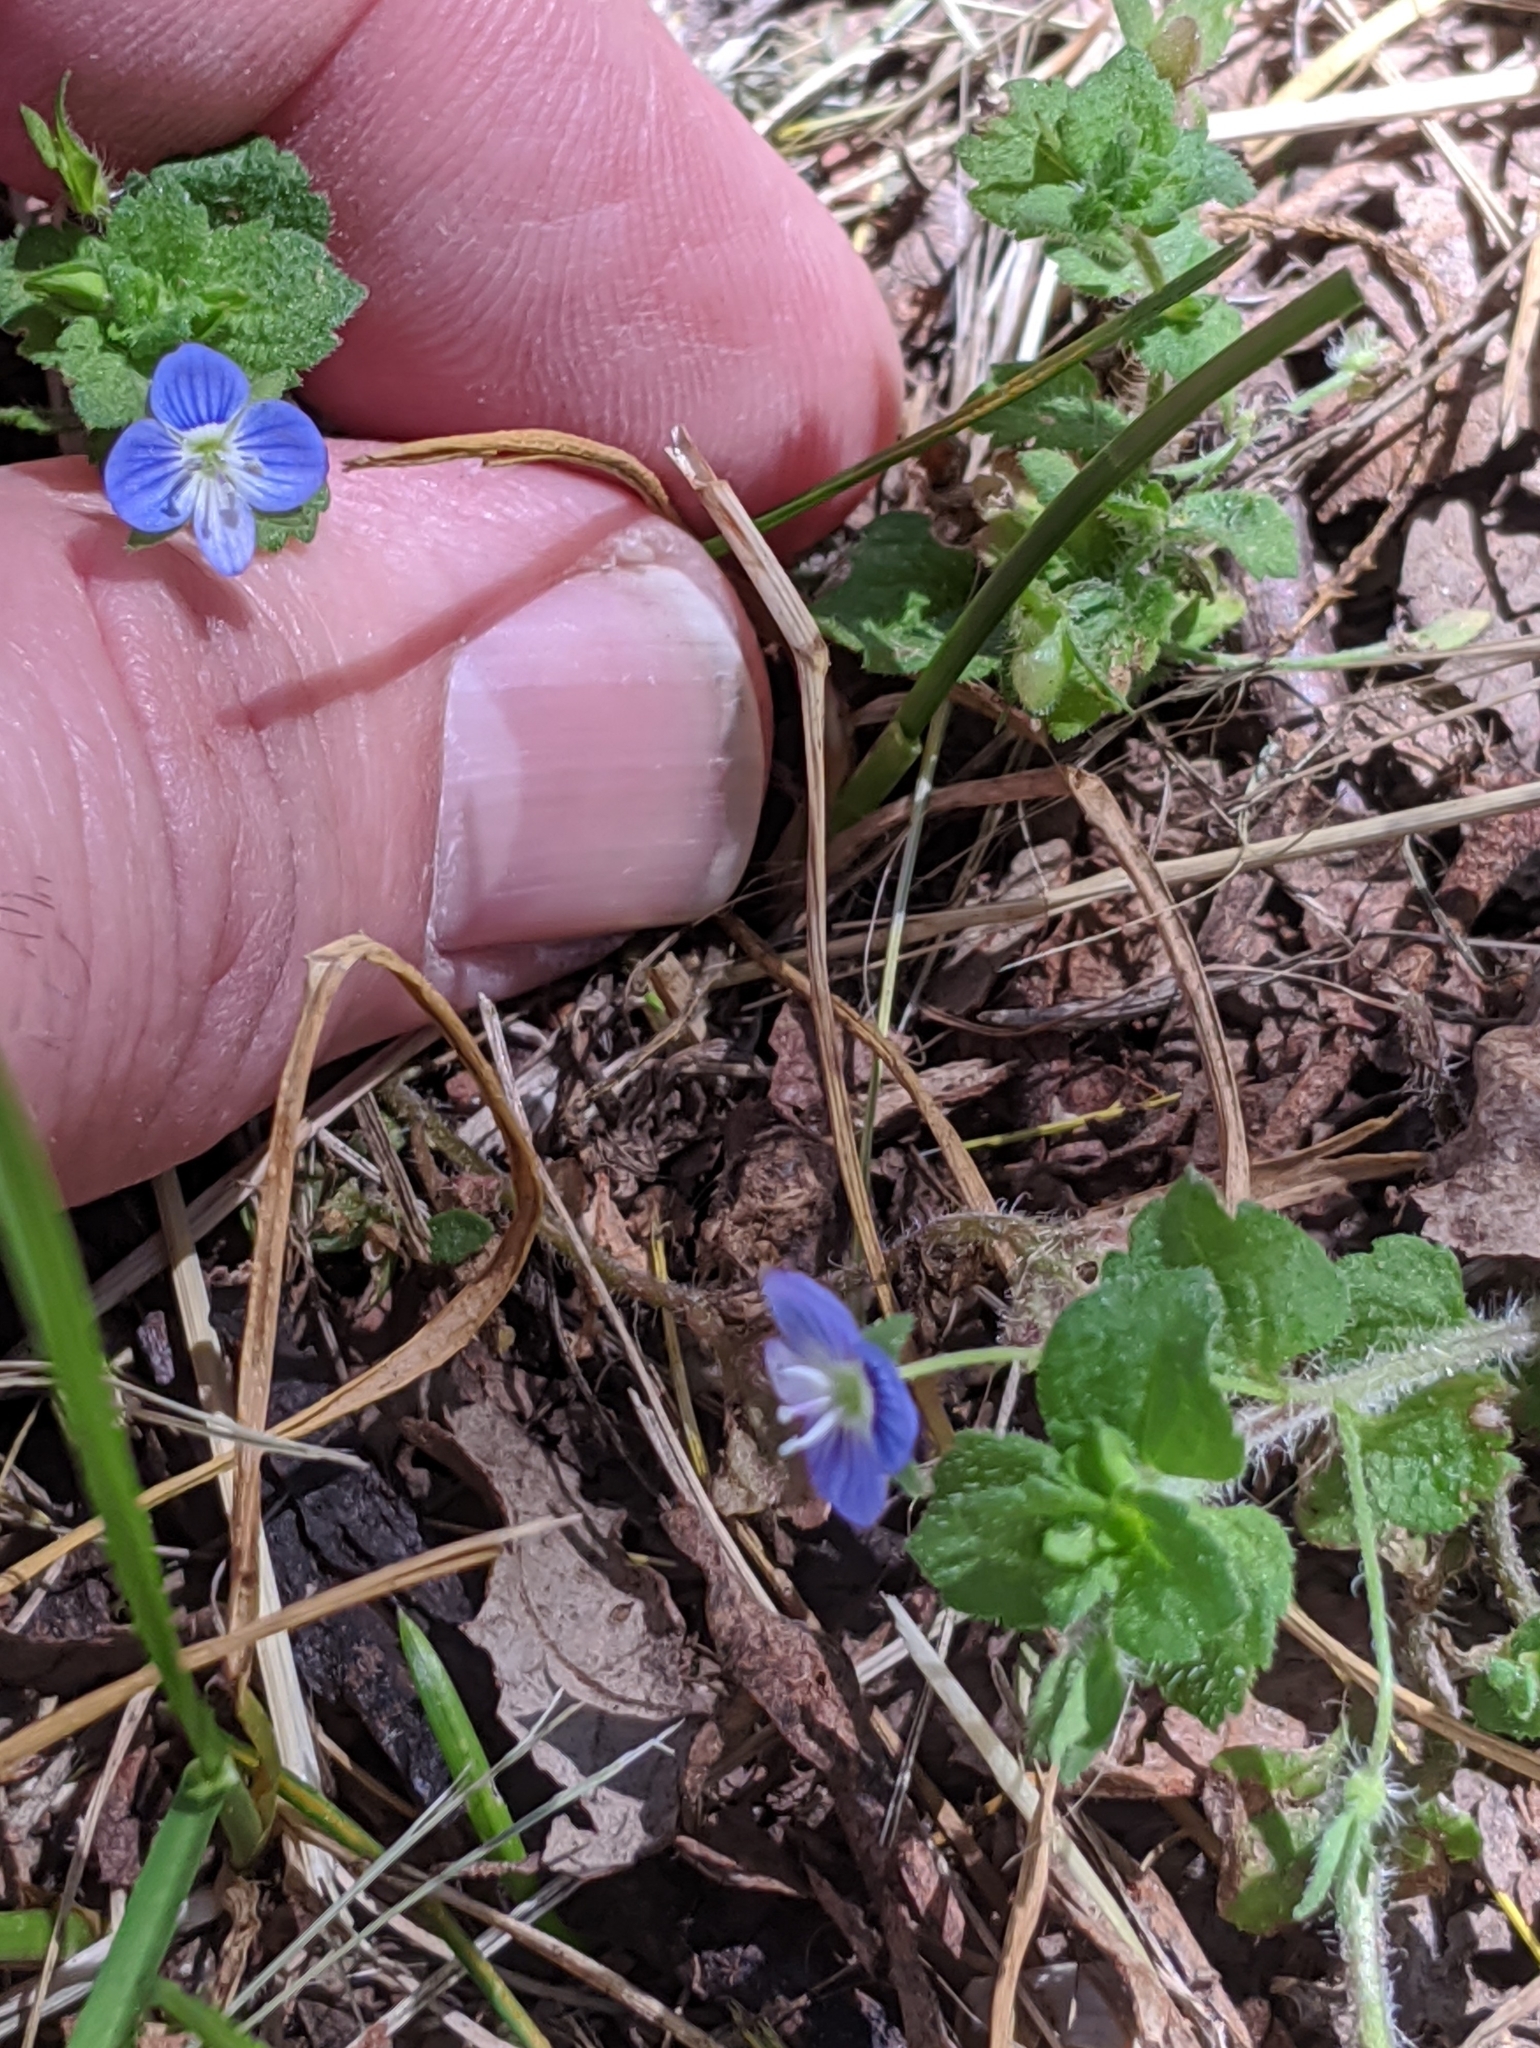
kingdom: Plantae
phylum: Tracheophyta
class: Magnoliopsida
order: Lamiales
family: Plantaginaceae
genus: Veronica
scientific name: Veronica persica
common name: Common field-speedwell
